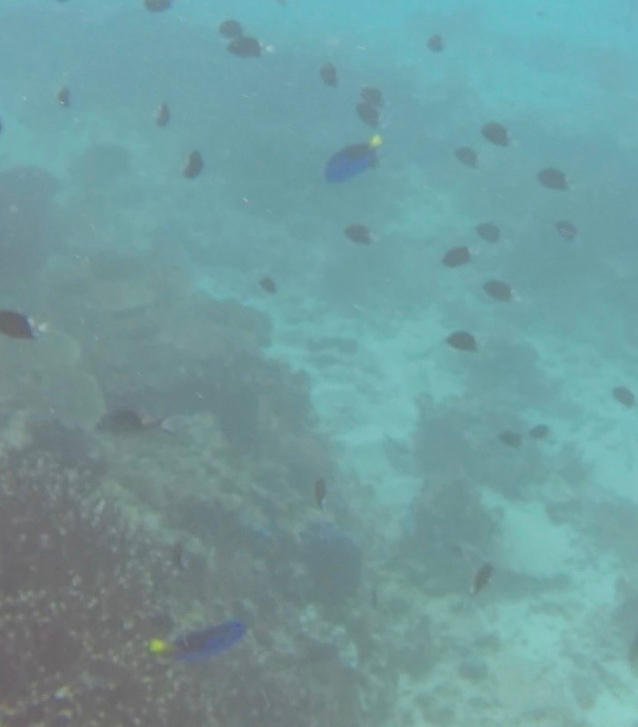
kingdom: Animalia
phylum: Chordata
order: Perciformes
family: Acanthuridae
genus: Paracanthurus
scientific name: Paracanthurus hepatus
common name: Palette surgeonfish
